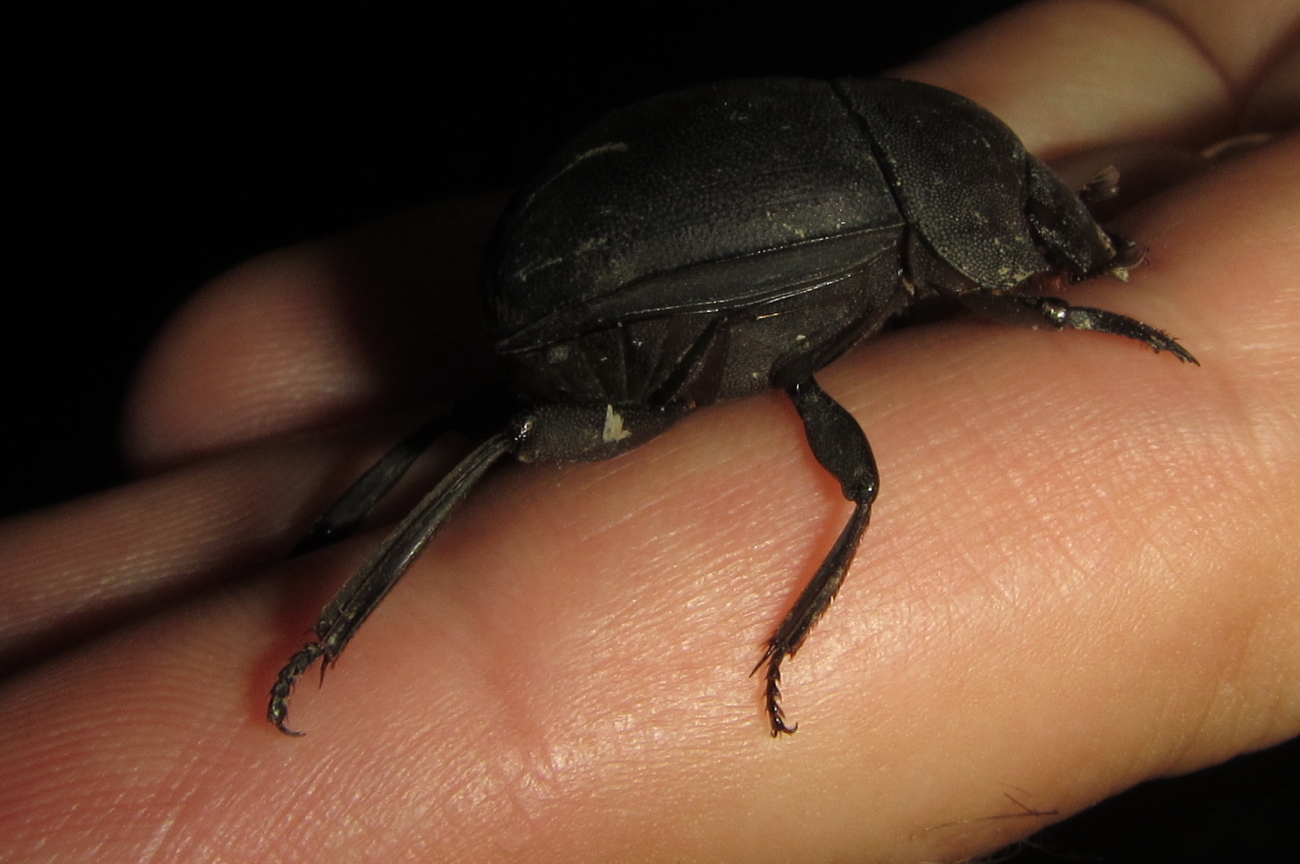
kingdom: Animalia
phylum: Arthropoda
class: Insecta
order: Coleoptera
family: Scarabaeidae
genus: Chalconotus
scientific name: Chalconotus convexus
